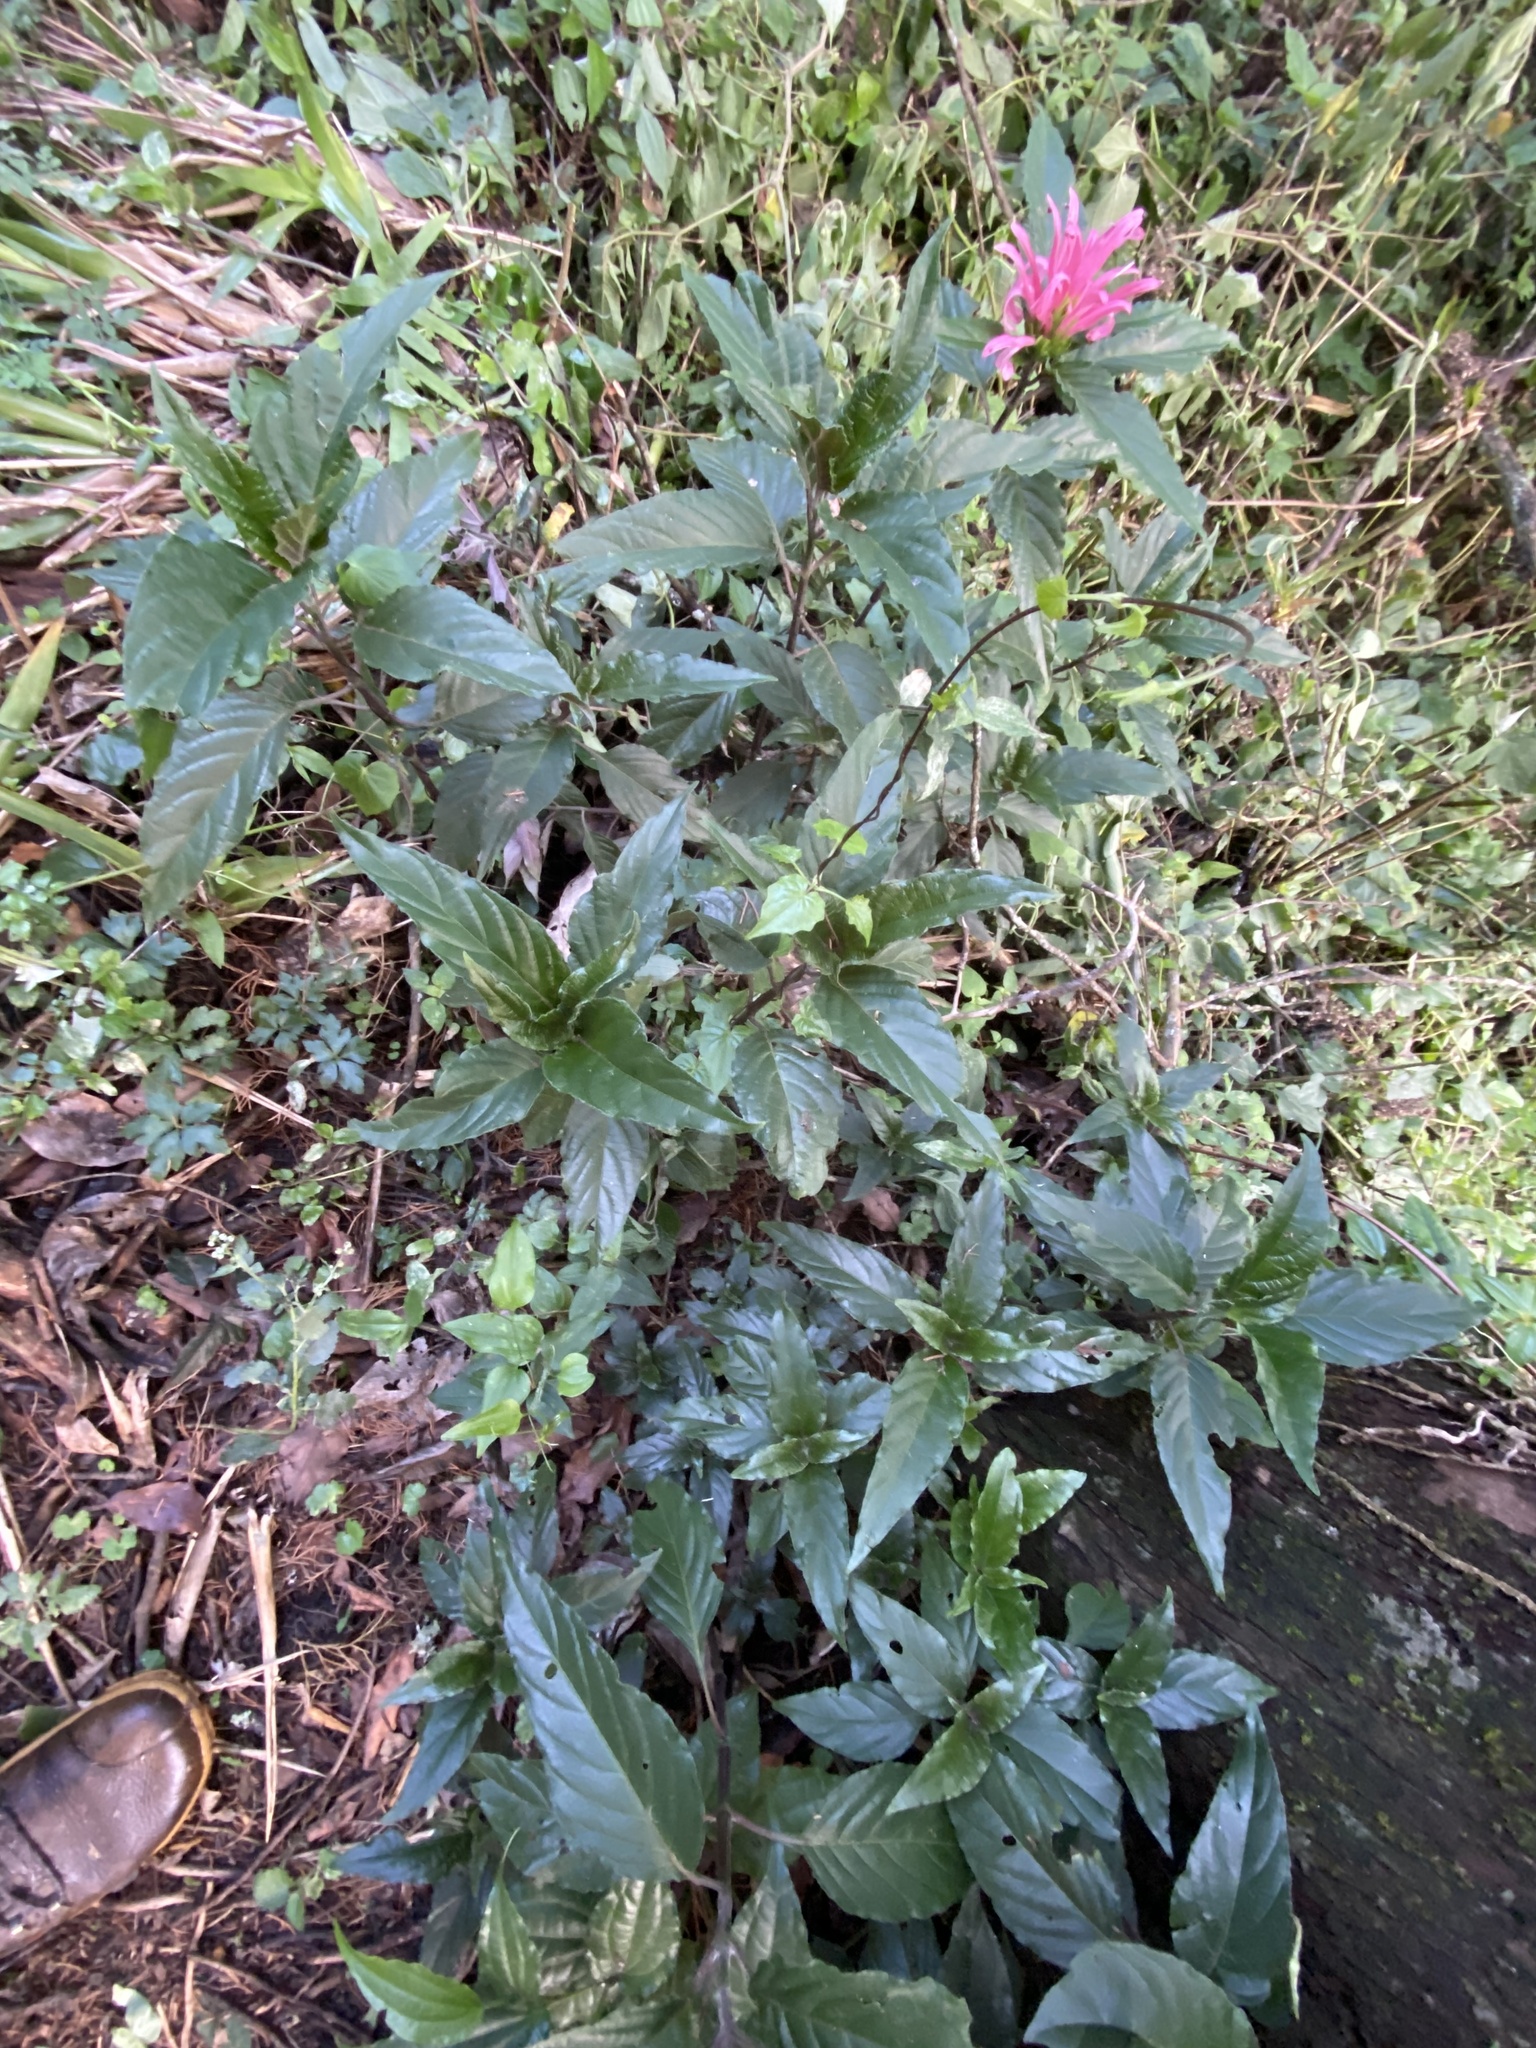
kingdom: Plantae
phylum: Tracheophyta
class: Magnoliopsida
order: Lamiales
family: Acanthaceae
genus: Justicia
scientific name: Justicia carnea
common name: Brazilian-plume
